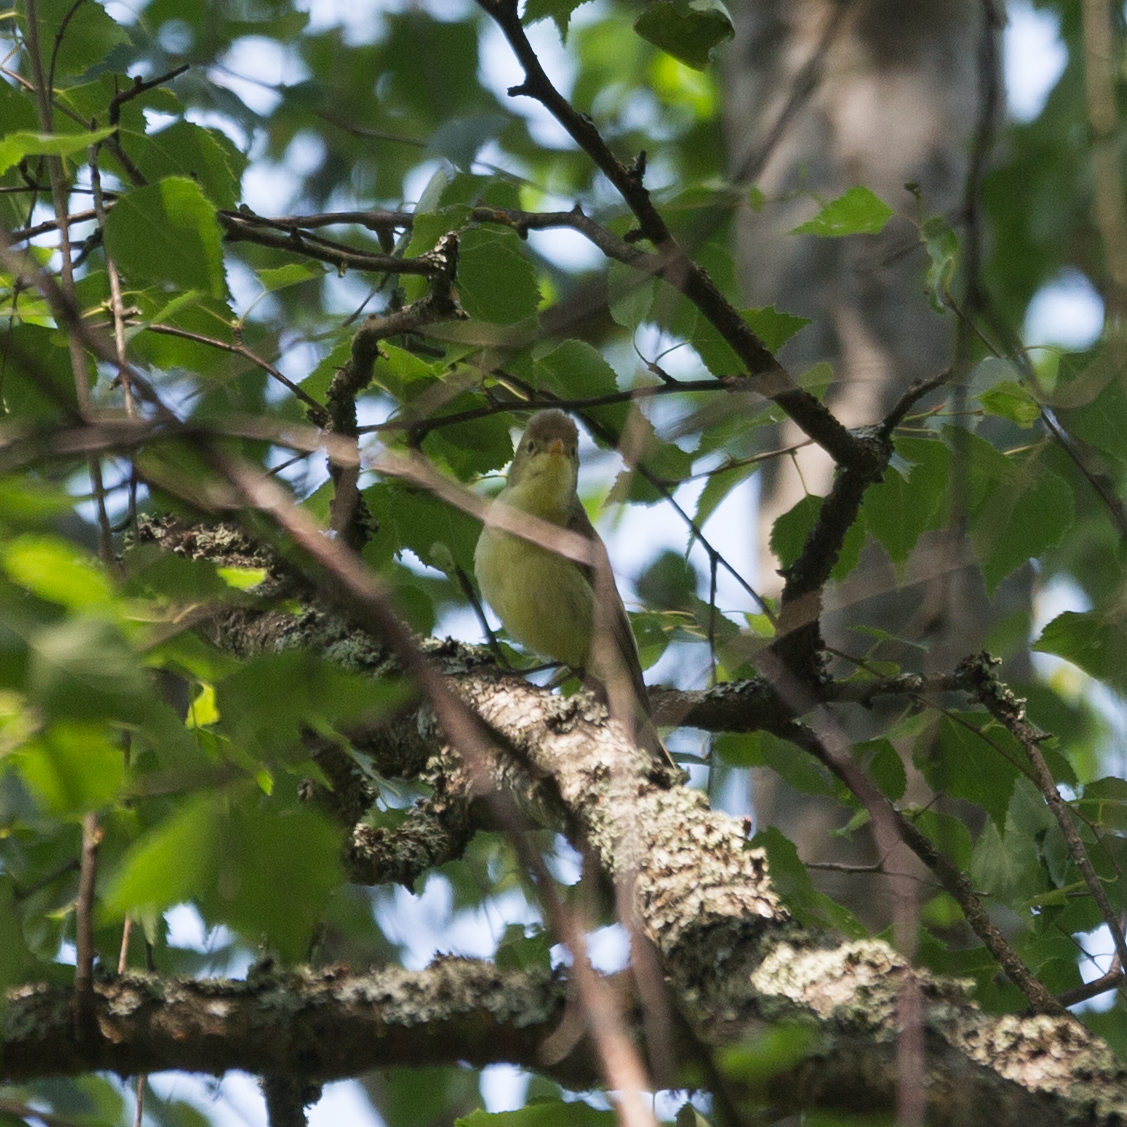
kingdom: Animalia
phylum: Chordata
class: Aves
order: Passeriformes
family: Acrocephalidae
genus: Hippolais
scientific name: Hippolais icterina
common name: Icterine warbler
